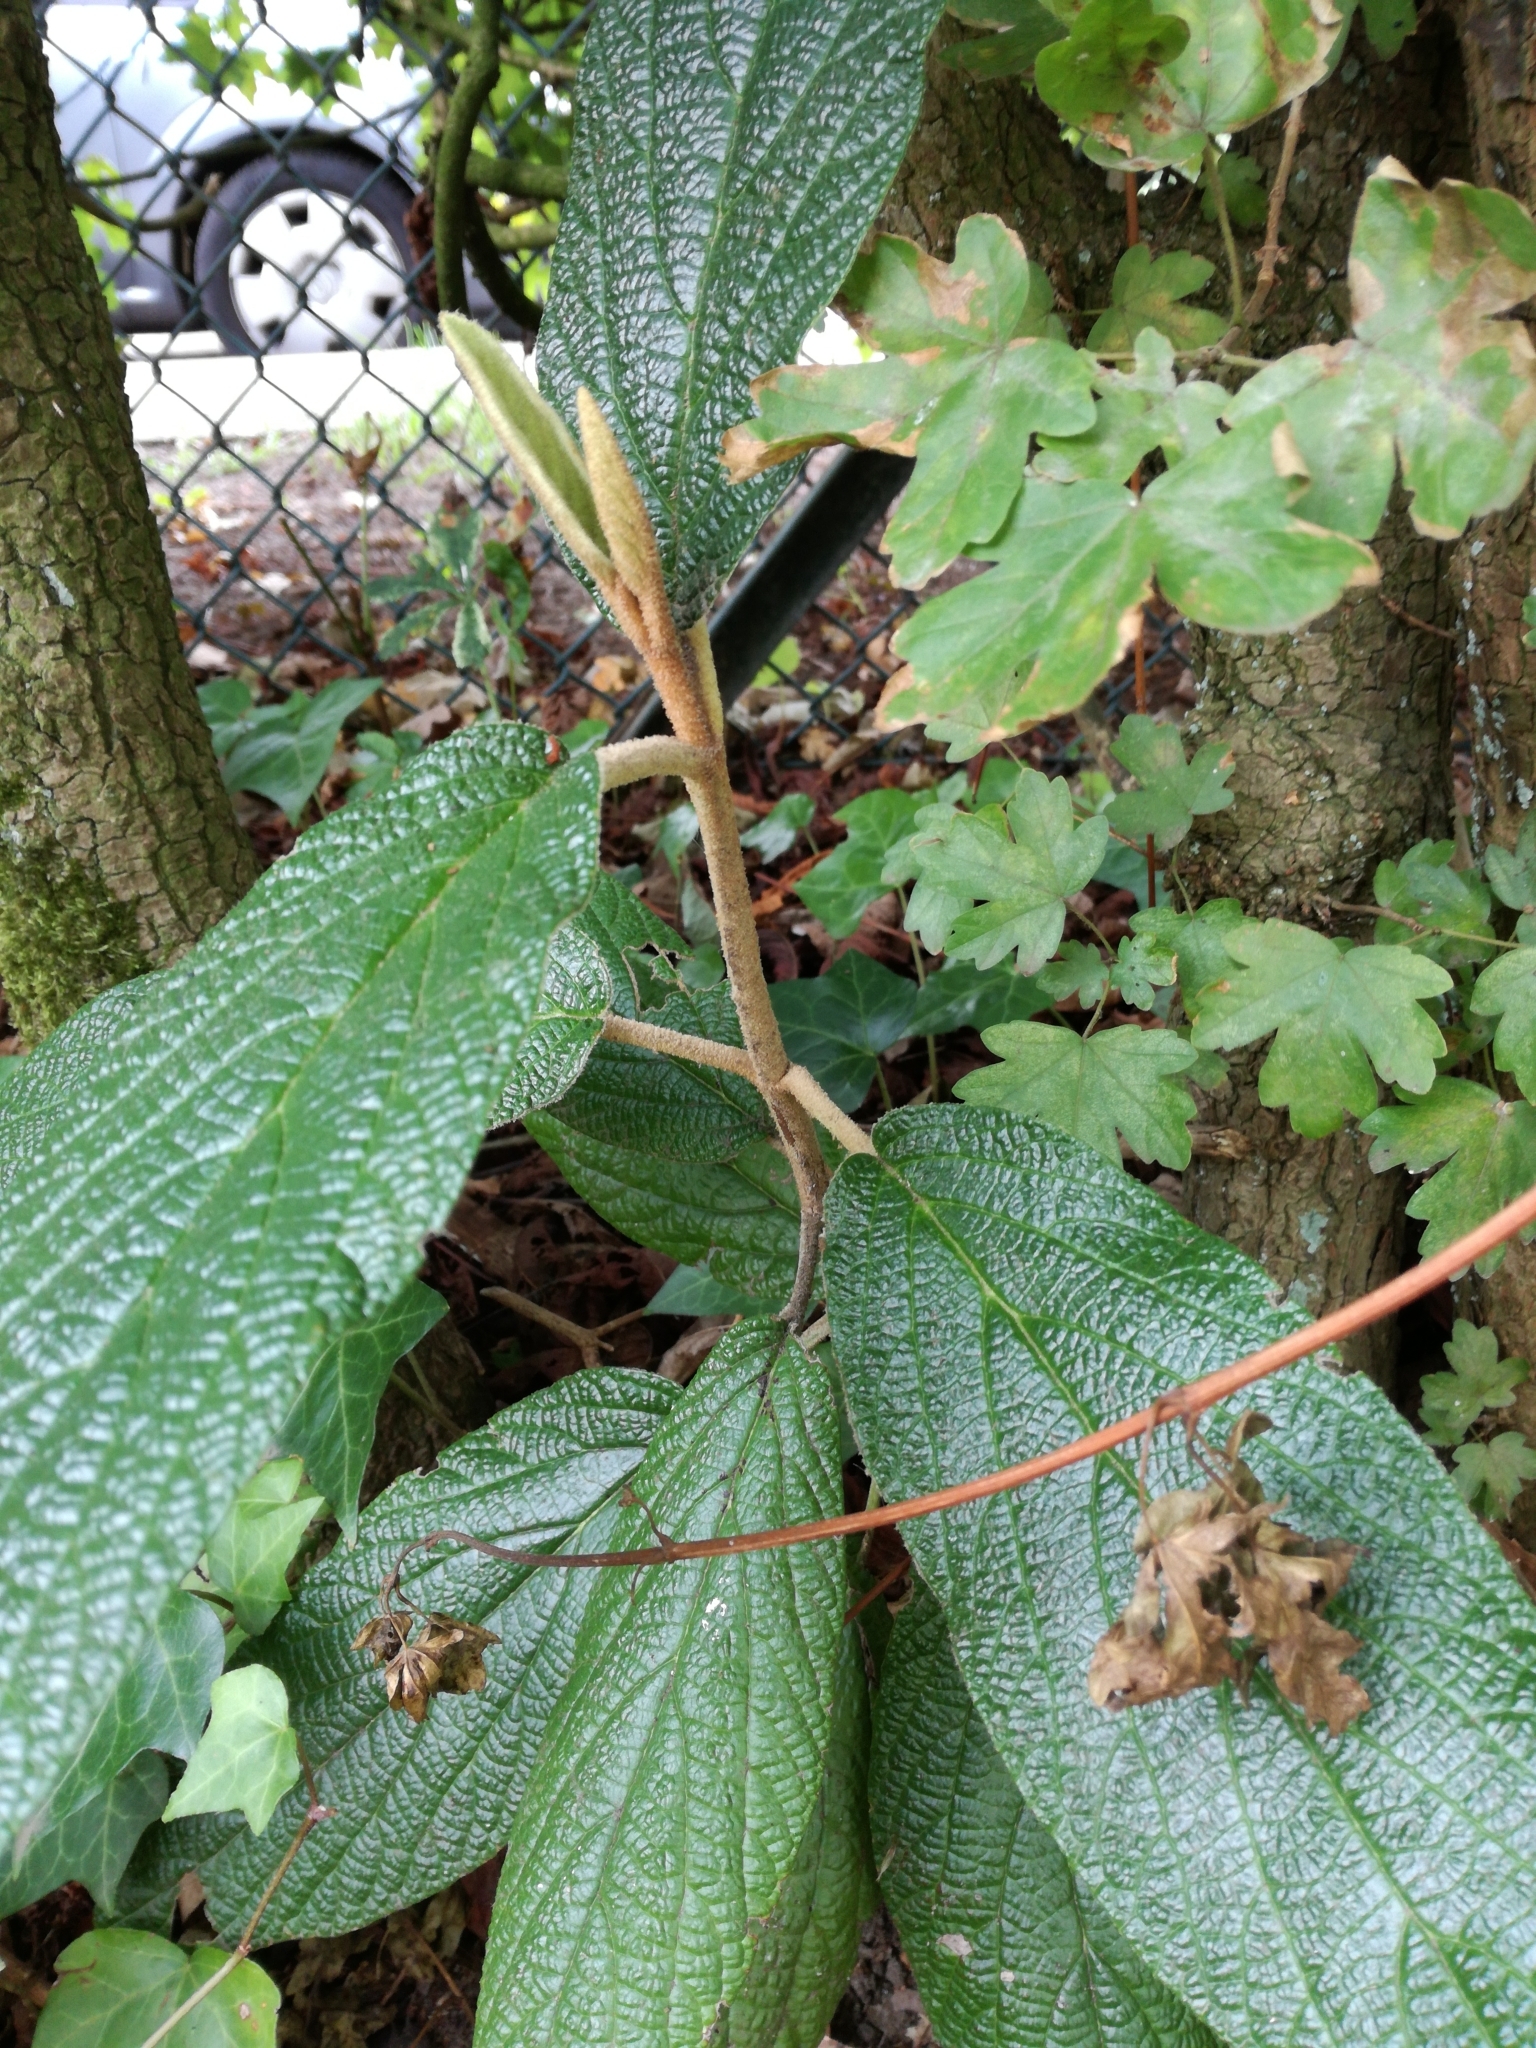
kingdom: Plantae
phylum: Tracheophyta
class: Magnoliopsida
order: Dipsacales
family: Viburnaceae
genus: Viburnum
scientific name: Viburnum rhytidophyllum
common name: Wrinkled viburnum
